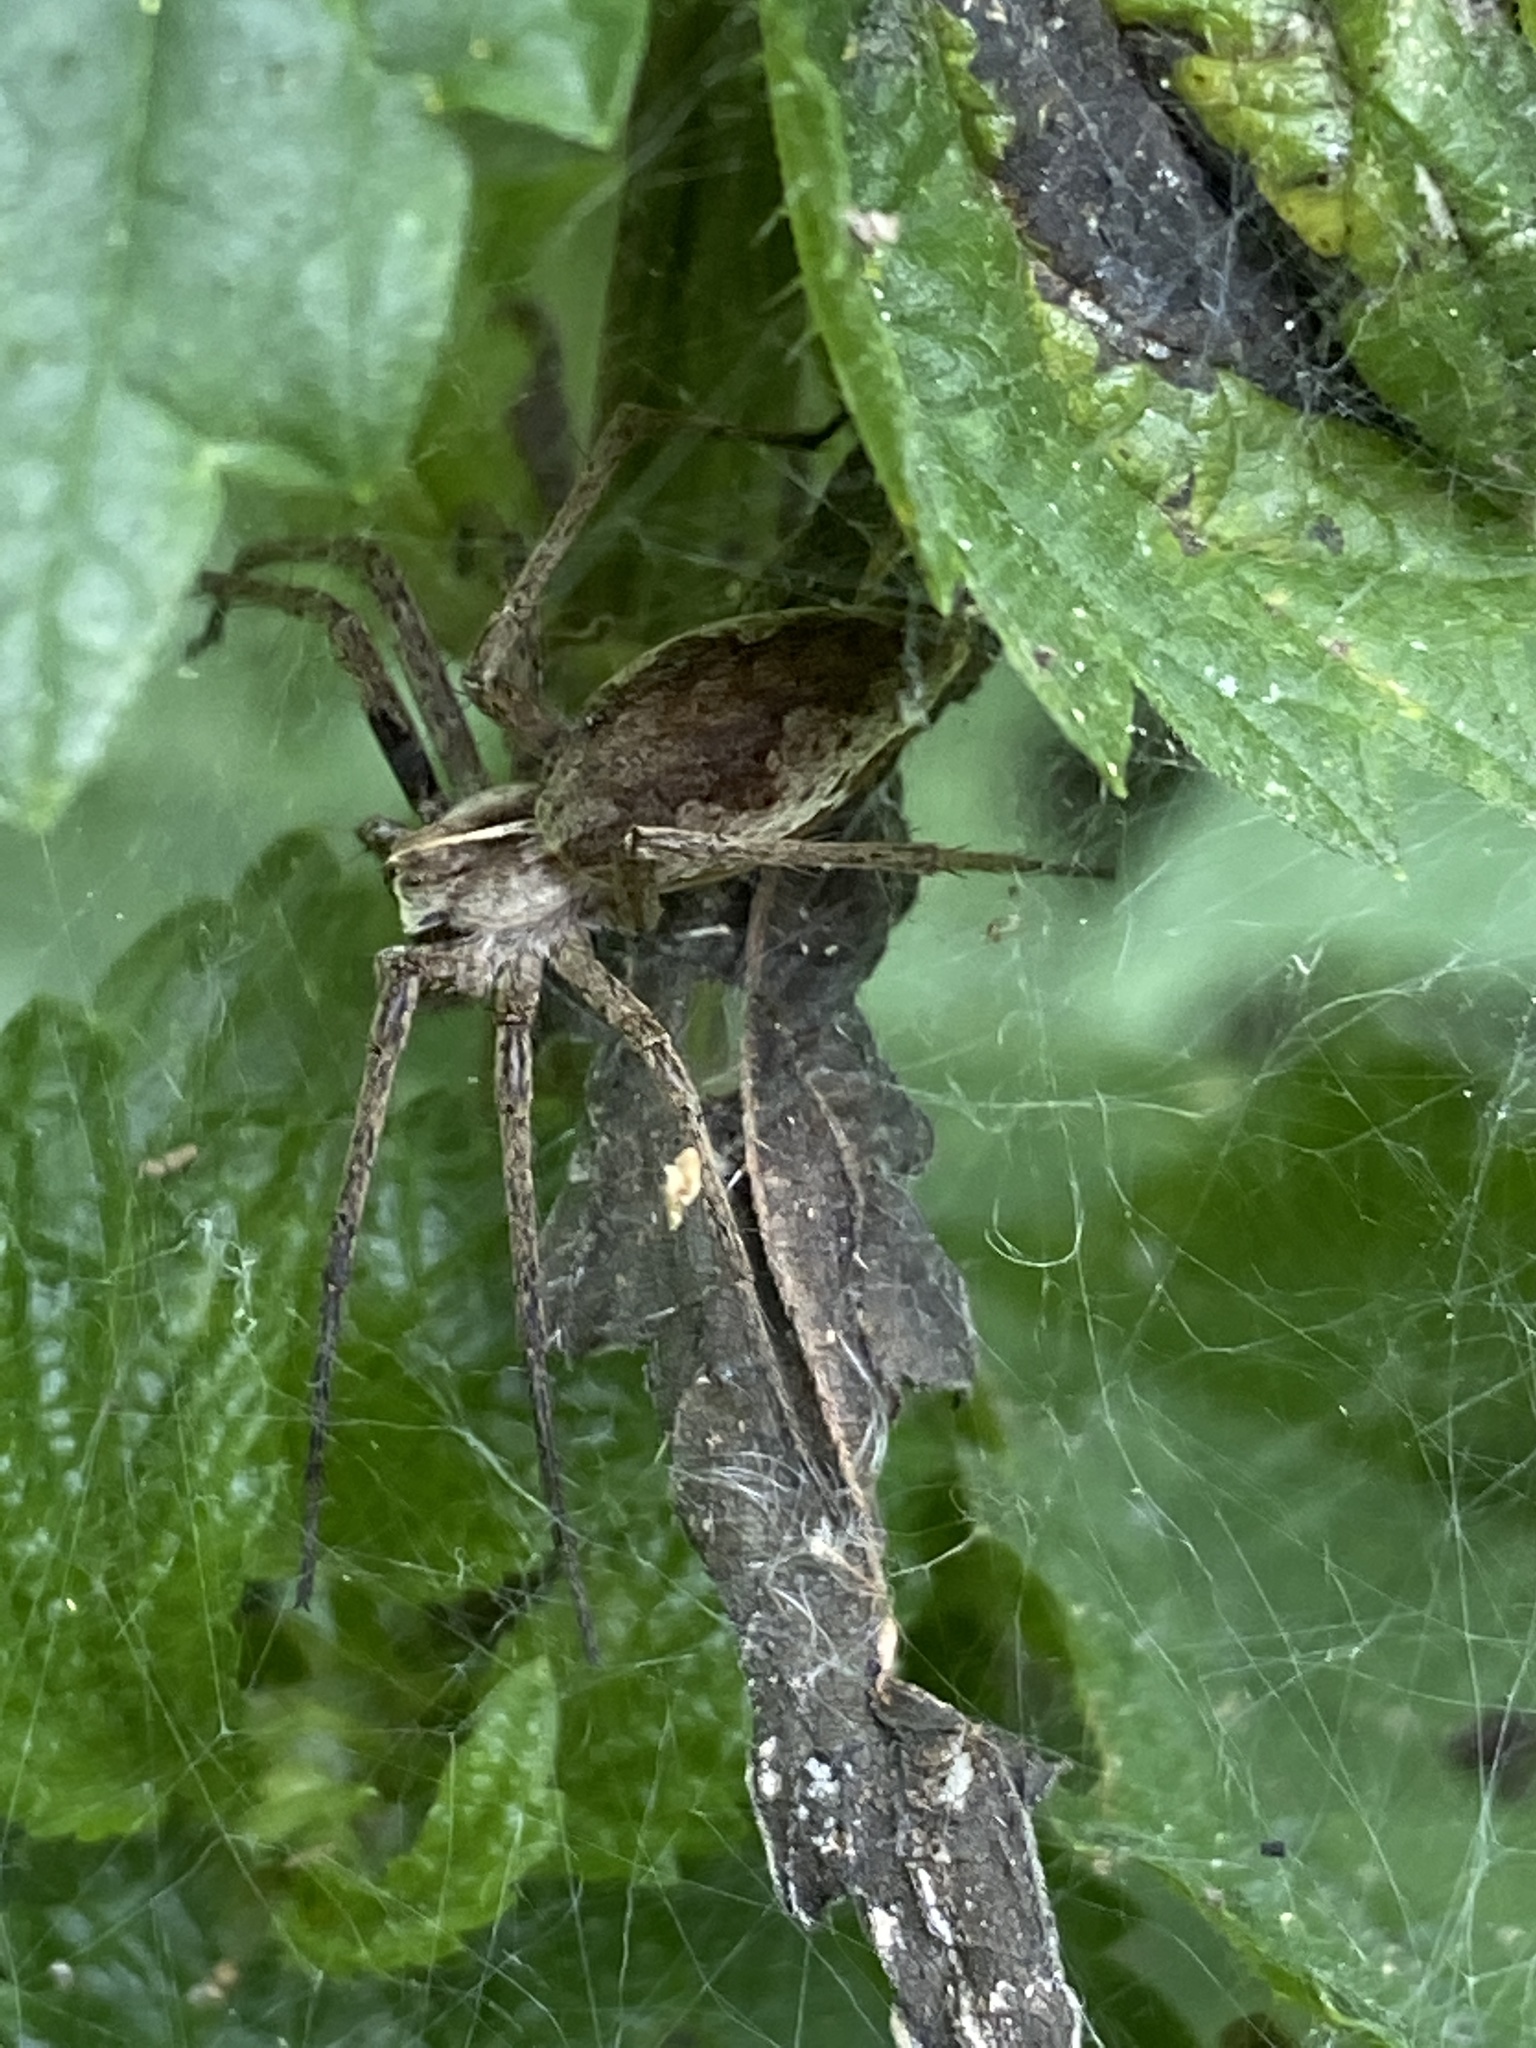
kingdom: Animalia
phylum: Arthropoda
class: Arachnida
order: Araneae
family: Pisauridae
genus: Pisaura
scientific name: Pisaura mirabilis
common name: Tent spider
